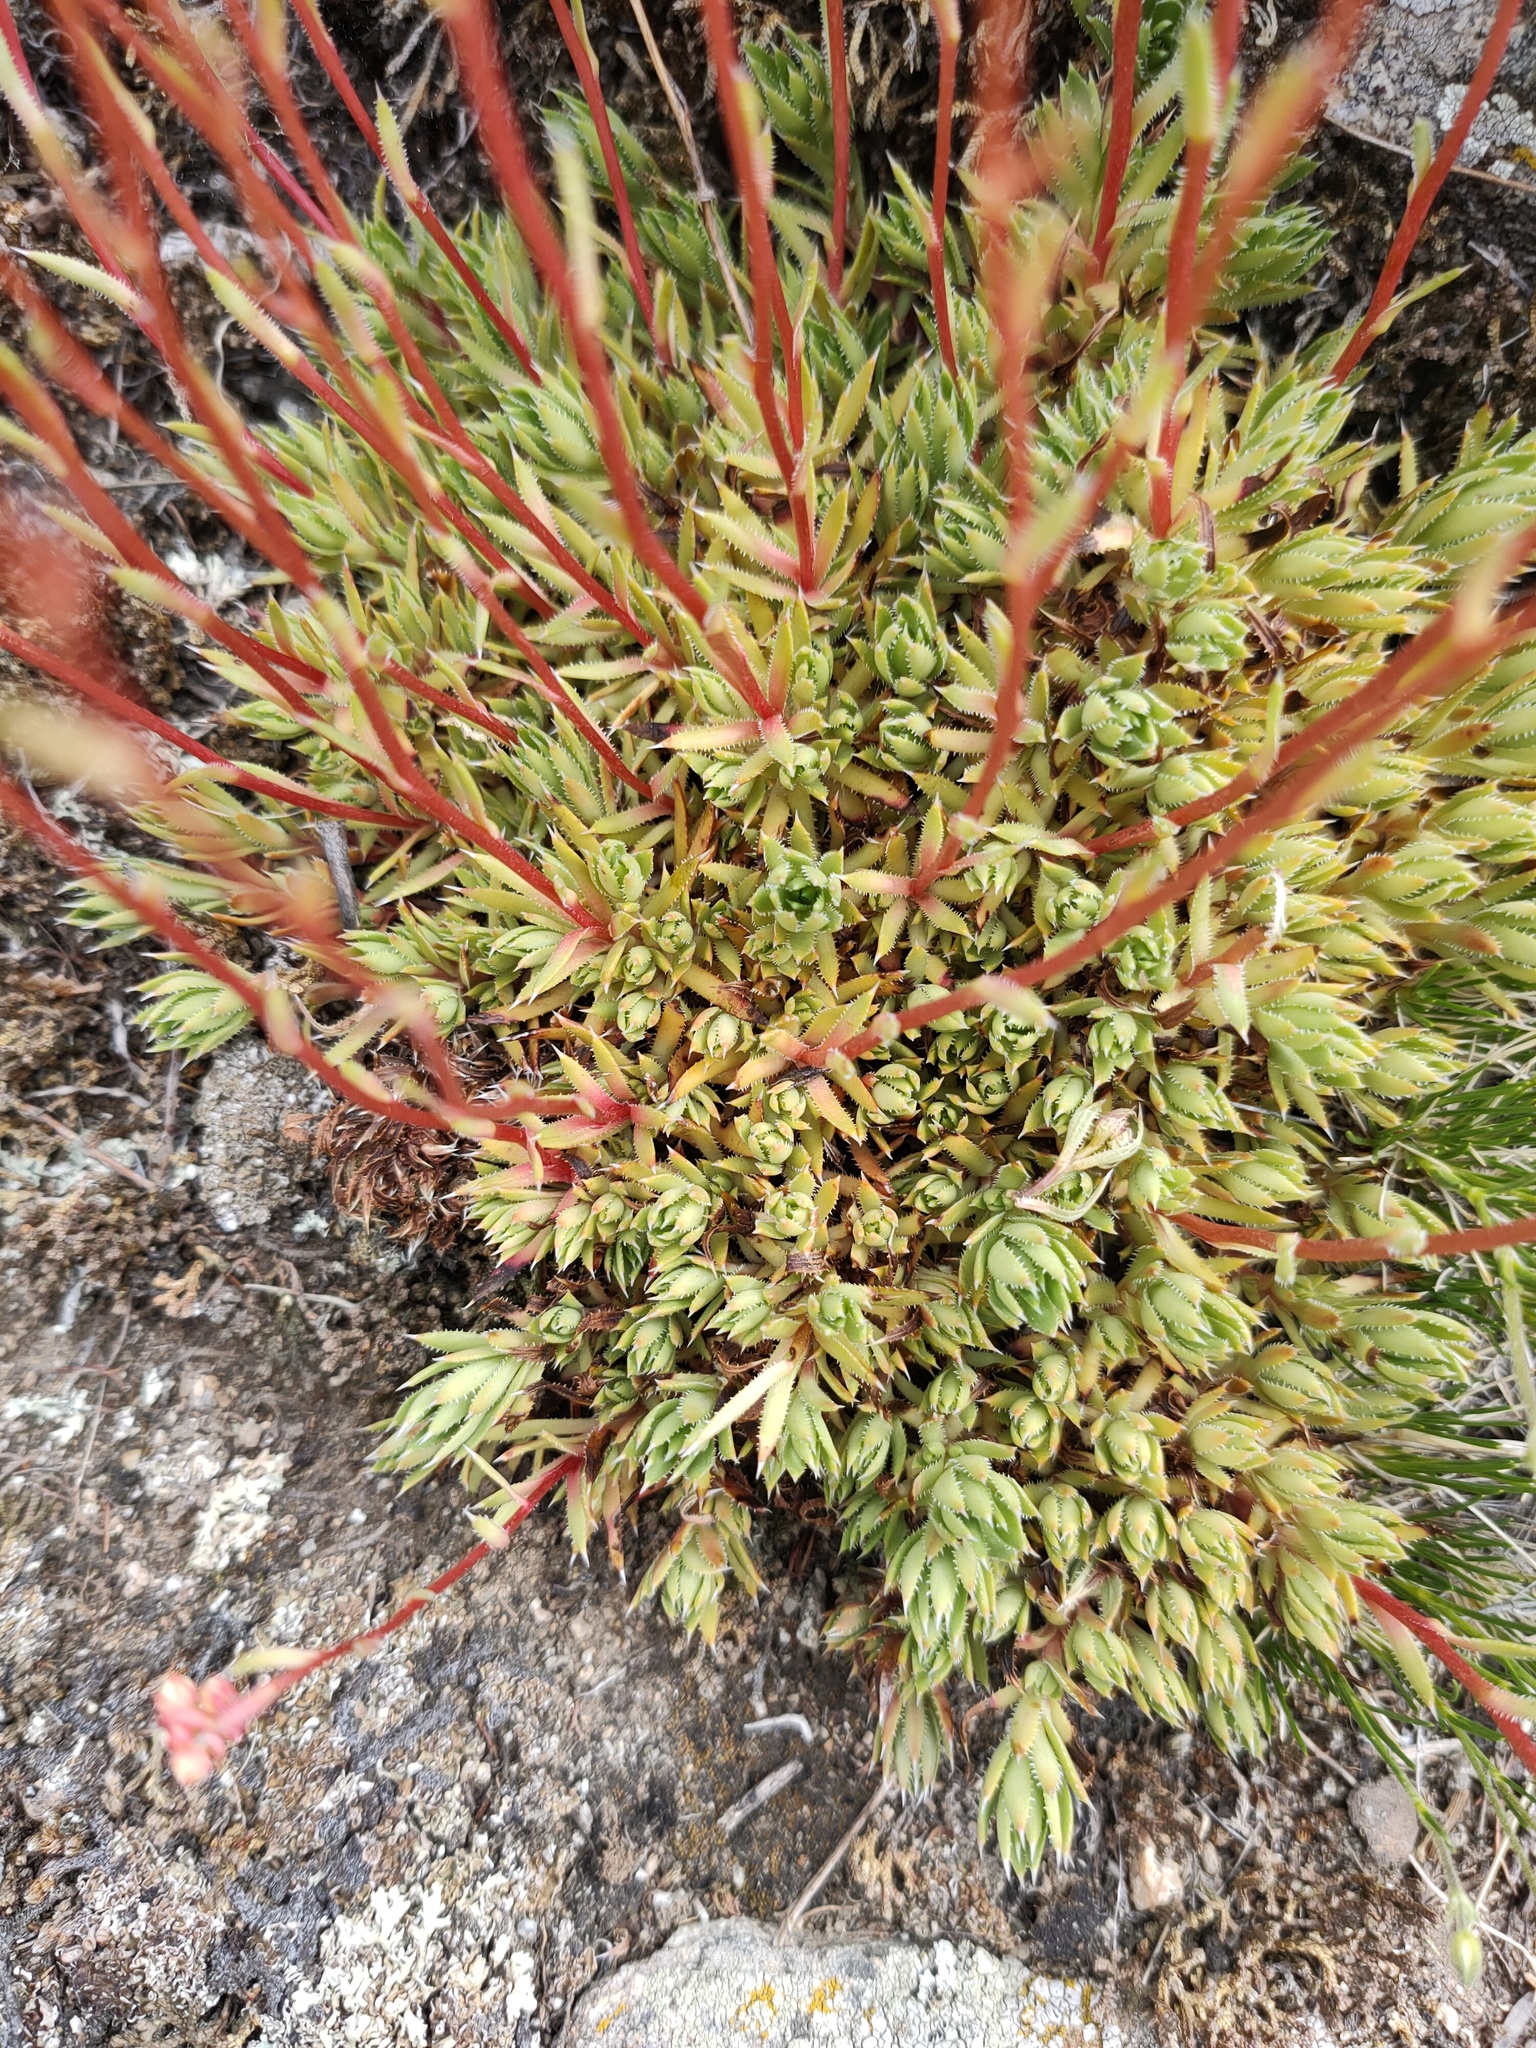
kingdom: Plantae
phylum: Tracheophyta
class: Magnoliopsida
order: Saxifragales
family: Saxifragaceae
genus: Saxifraga
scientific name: Saxifraga
